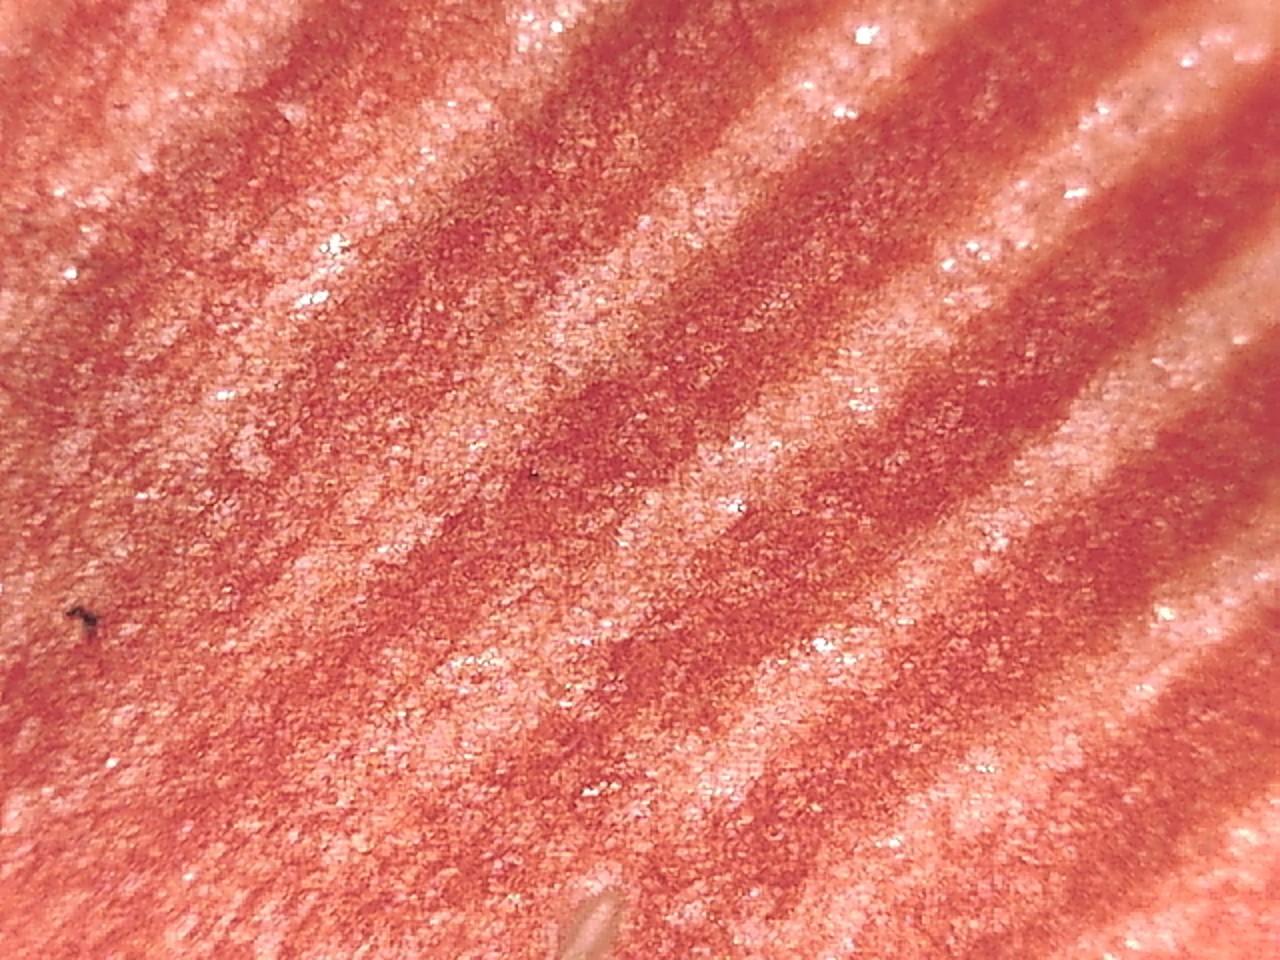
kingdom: Fungi
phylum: Basidiomycota
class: Agaricomycetes
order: Agaricales
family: Amanitaceae
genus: Amanita
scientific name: Amanita caesareoides
